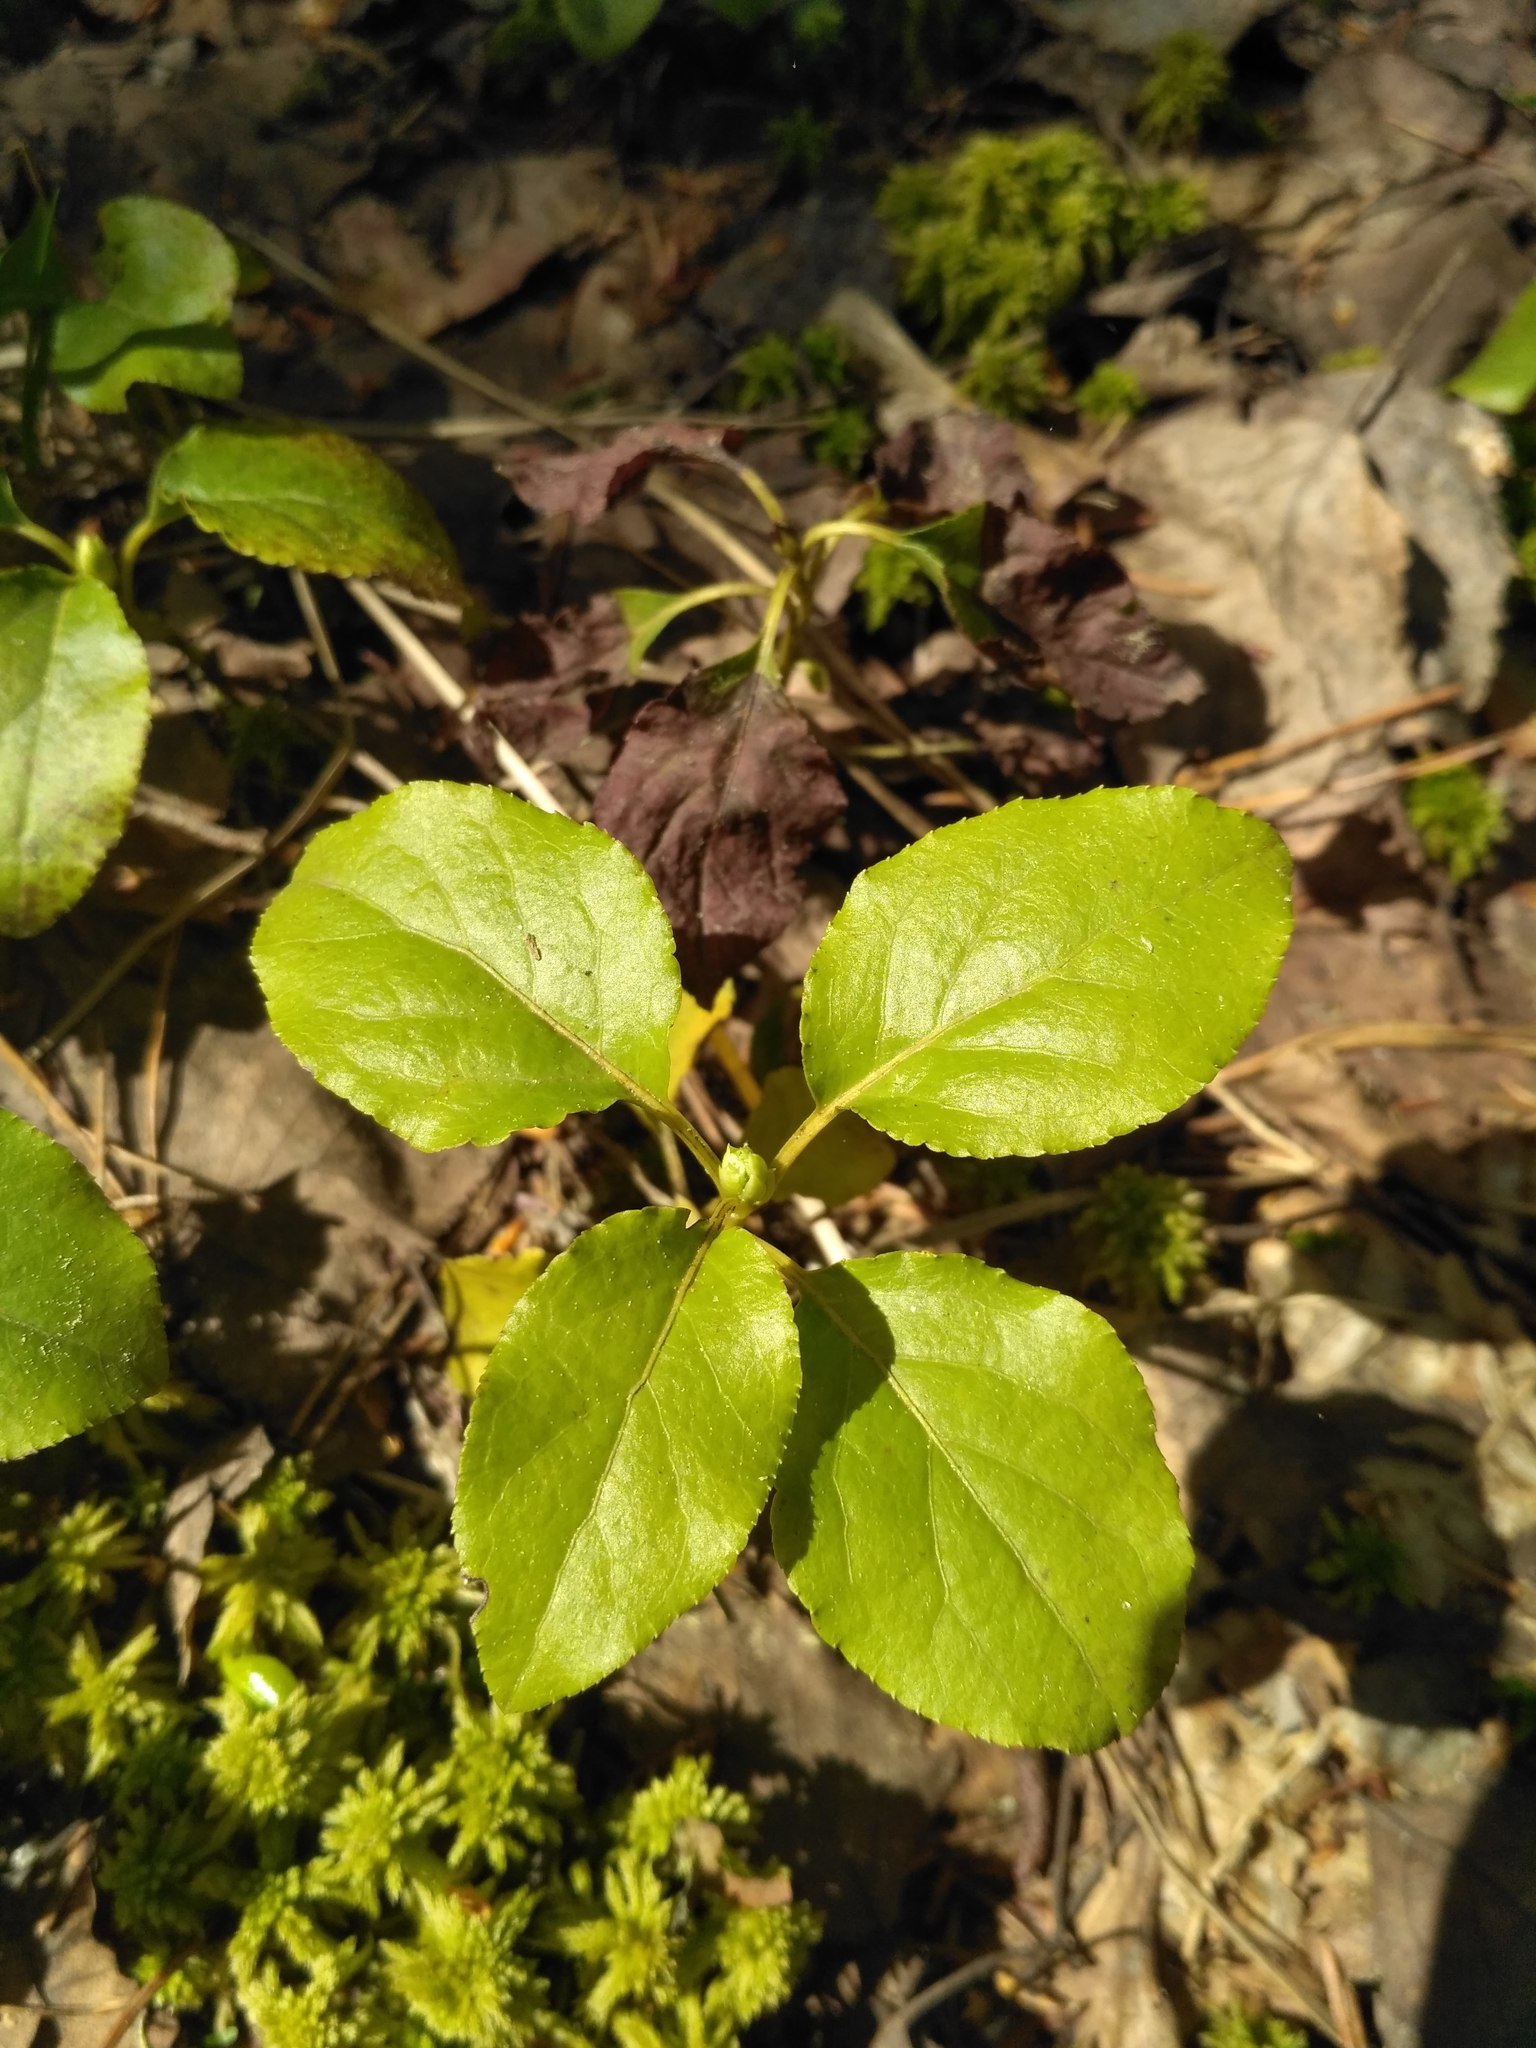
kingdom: Plantae
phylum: Tracheophyta
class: Magnoliopsida
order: Ericales
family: Ericaceae
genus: Orthilia
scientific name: Orthilia secunda
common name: One-sided orthilia
